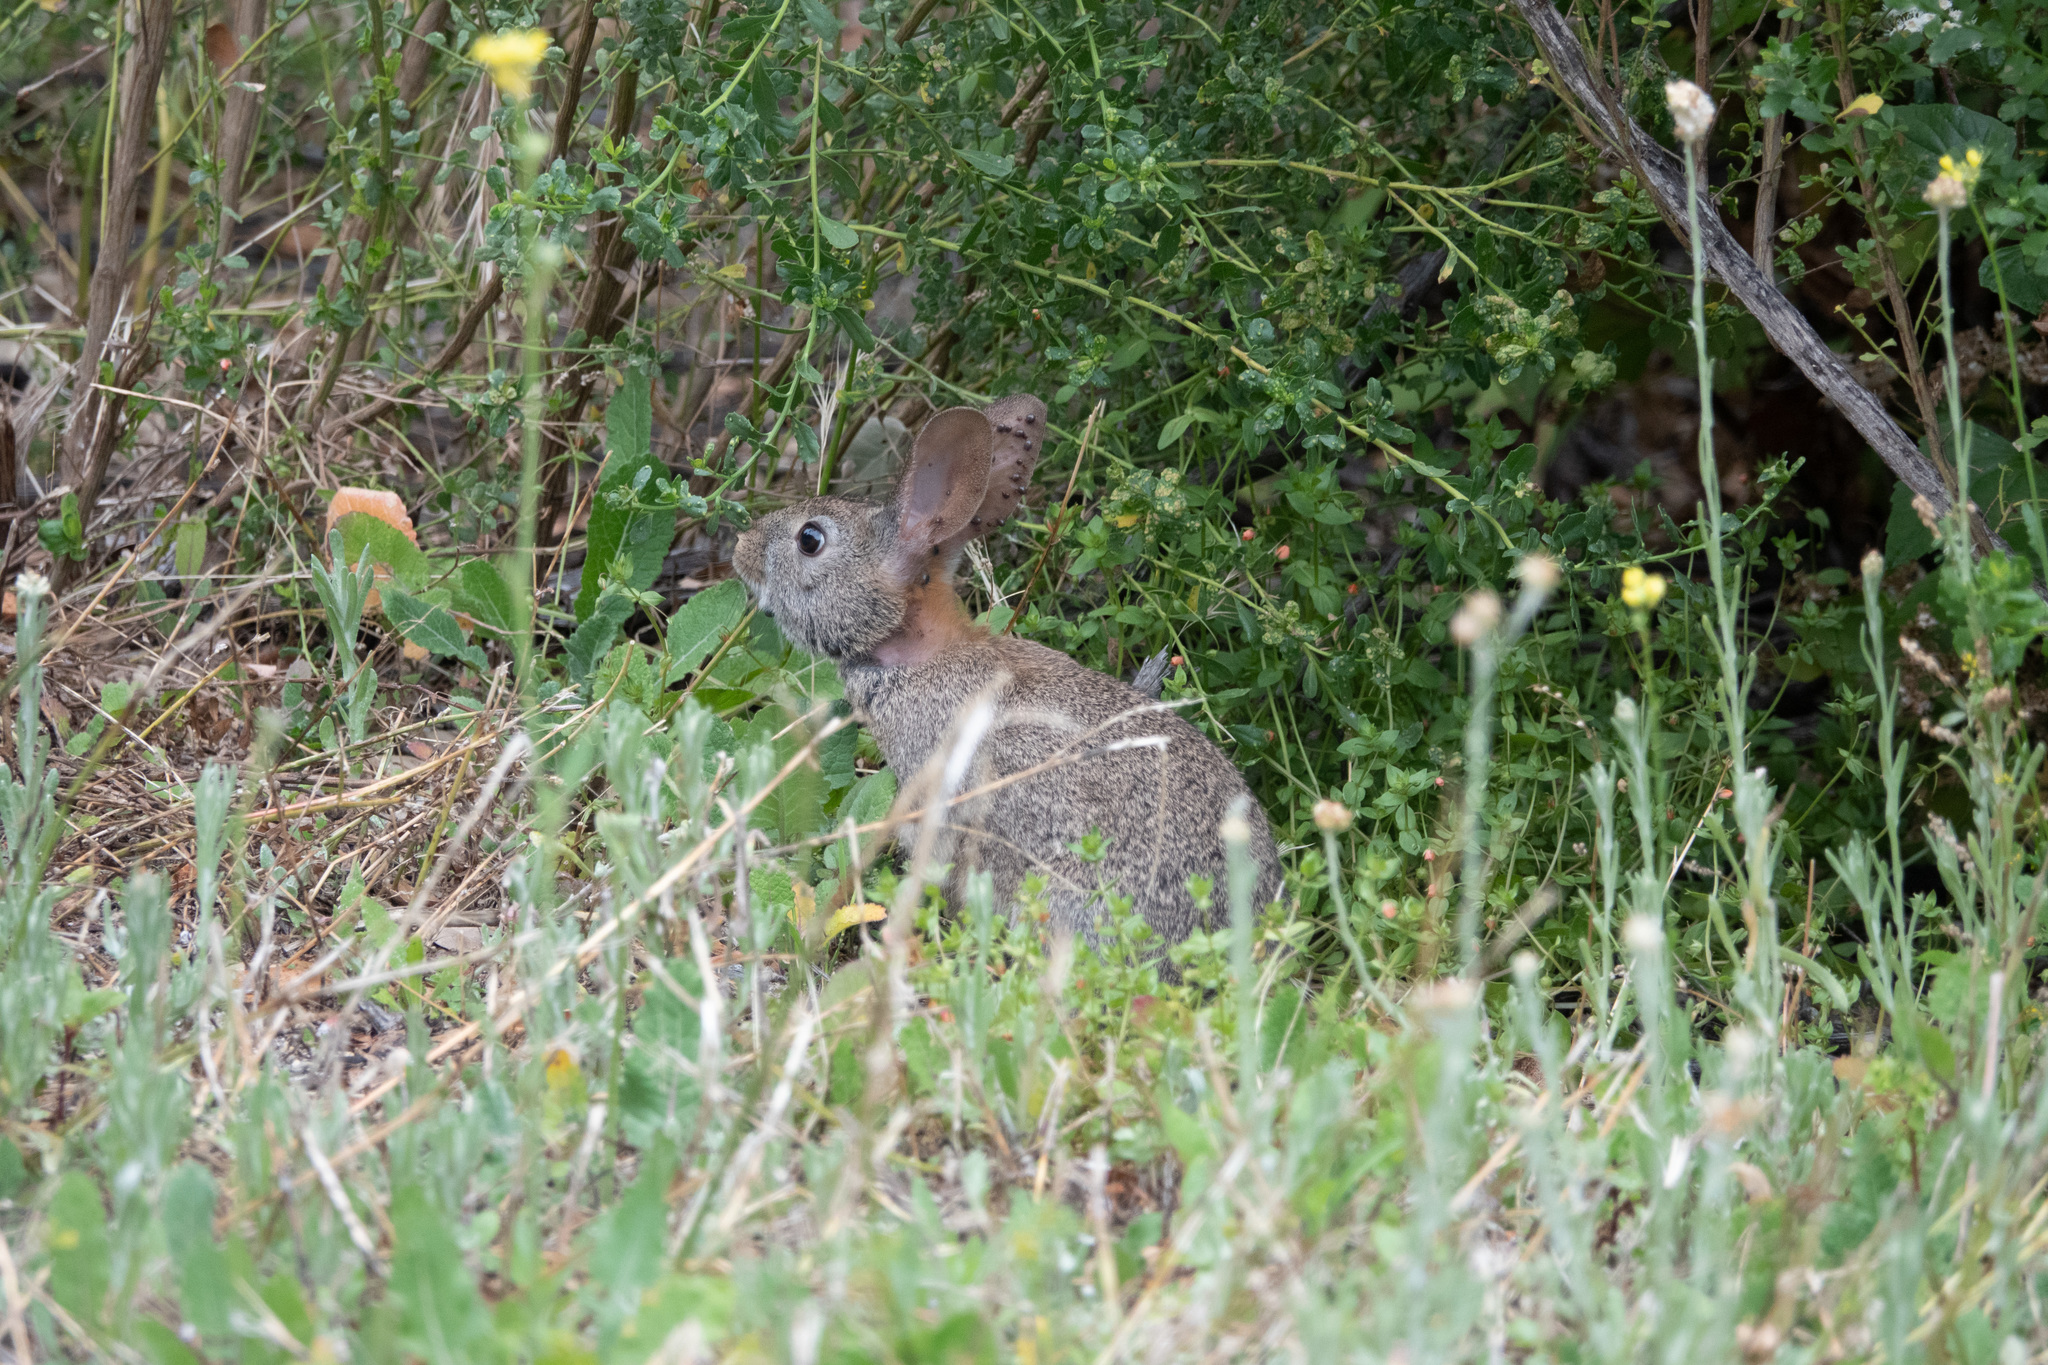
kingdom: Animalia
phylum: Chordata
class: Mammalia
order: Lagomorpha
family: Leporidae
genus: Sylvilagus
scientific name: Sylvilagus bachmani
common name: Brush rabbit
